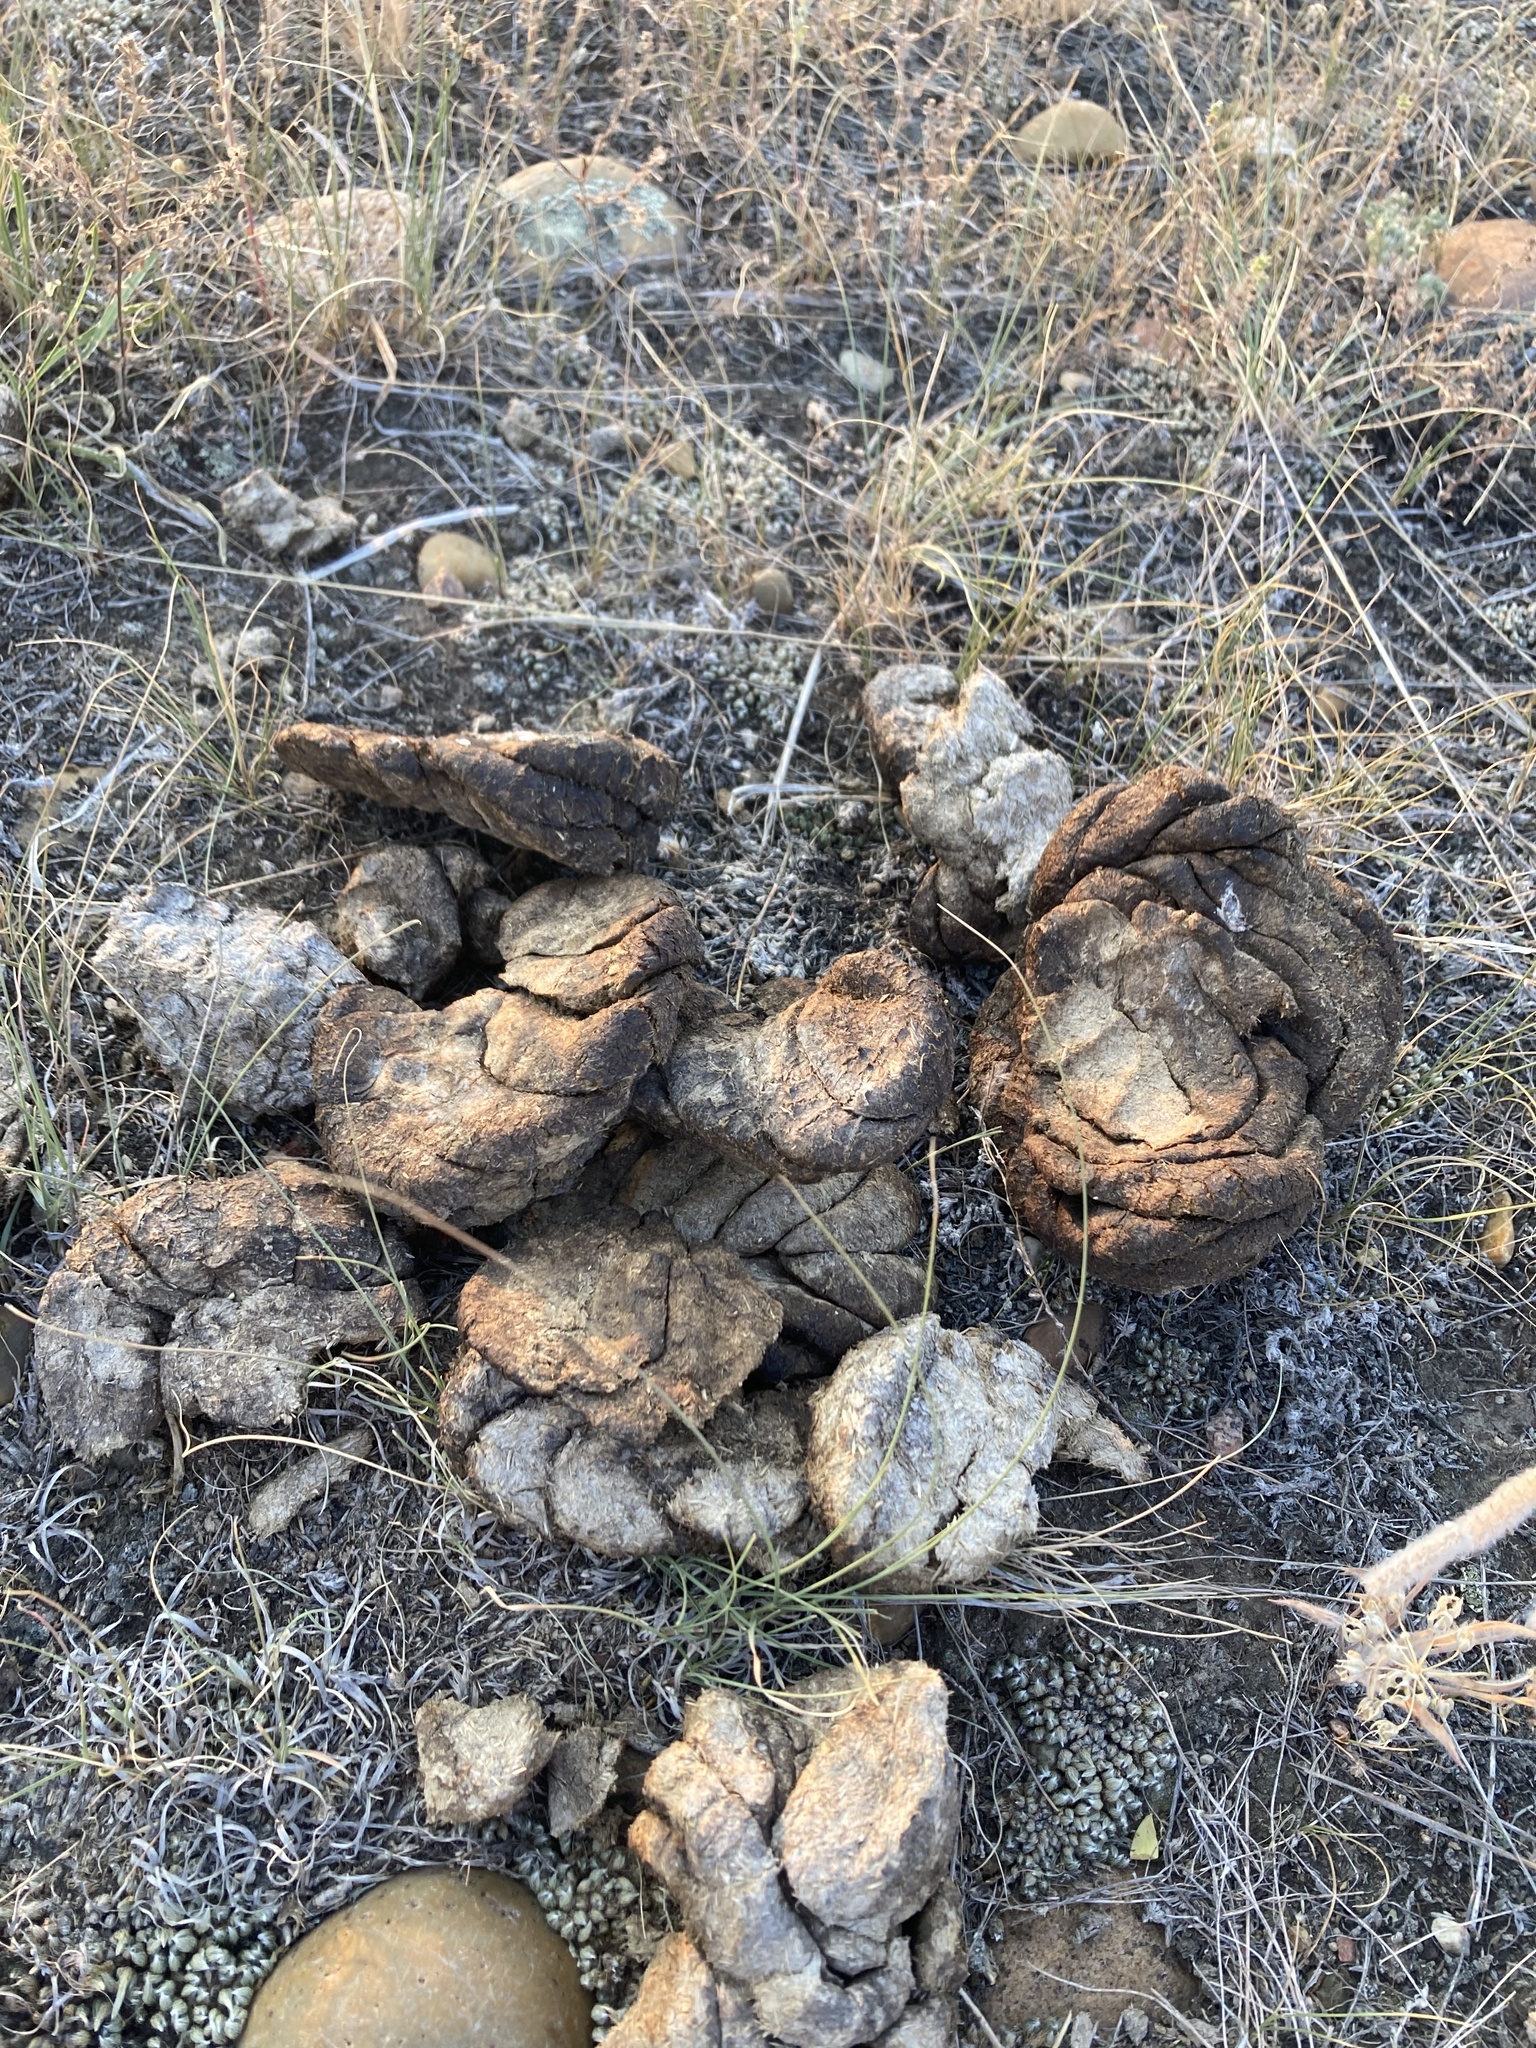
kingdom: Animalia
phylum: Chordata
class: Mammalia
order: Artiodactyla
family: Bovidae
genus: Bison
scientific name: Bison bison
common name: American bison
